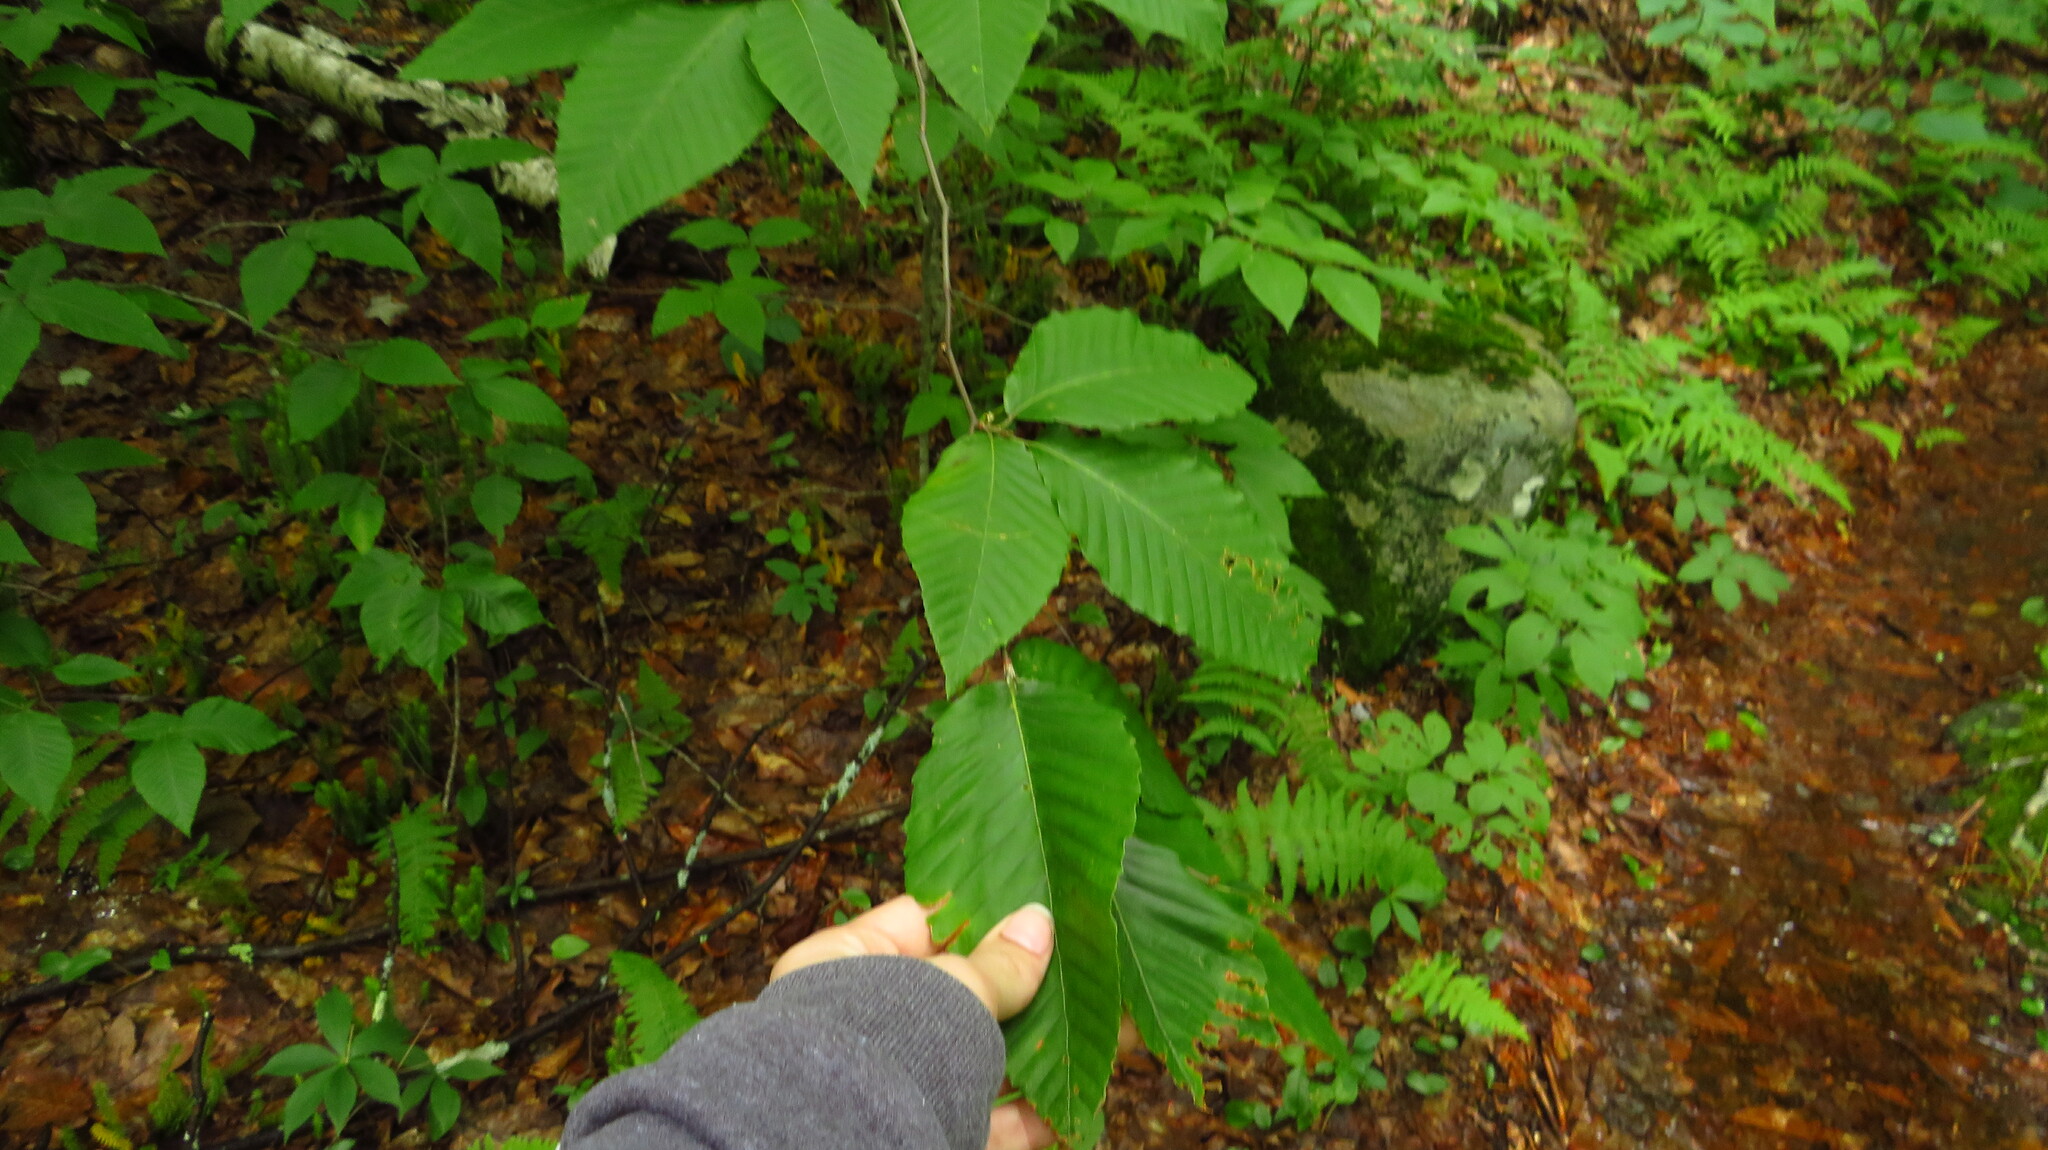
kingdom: Plantae
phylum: Tracheophyta
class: Magnoliopsida
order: Fagales
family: Fagaceae
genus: Fagus
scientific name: Fagus grandifolia
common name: American beech
